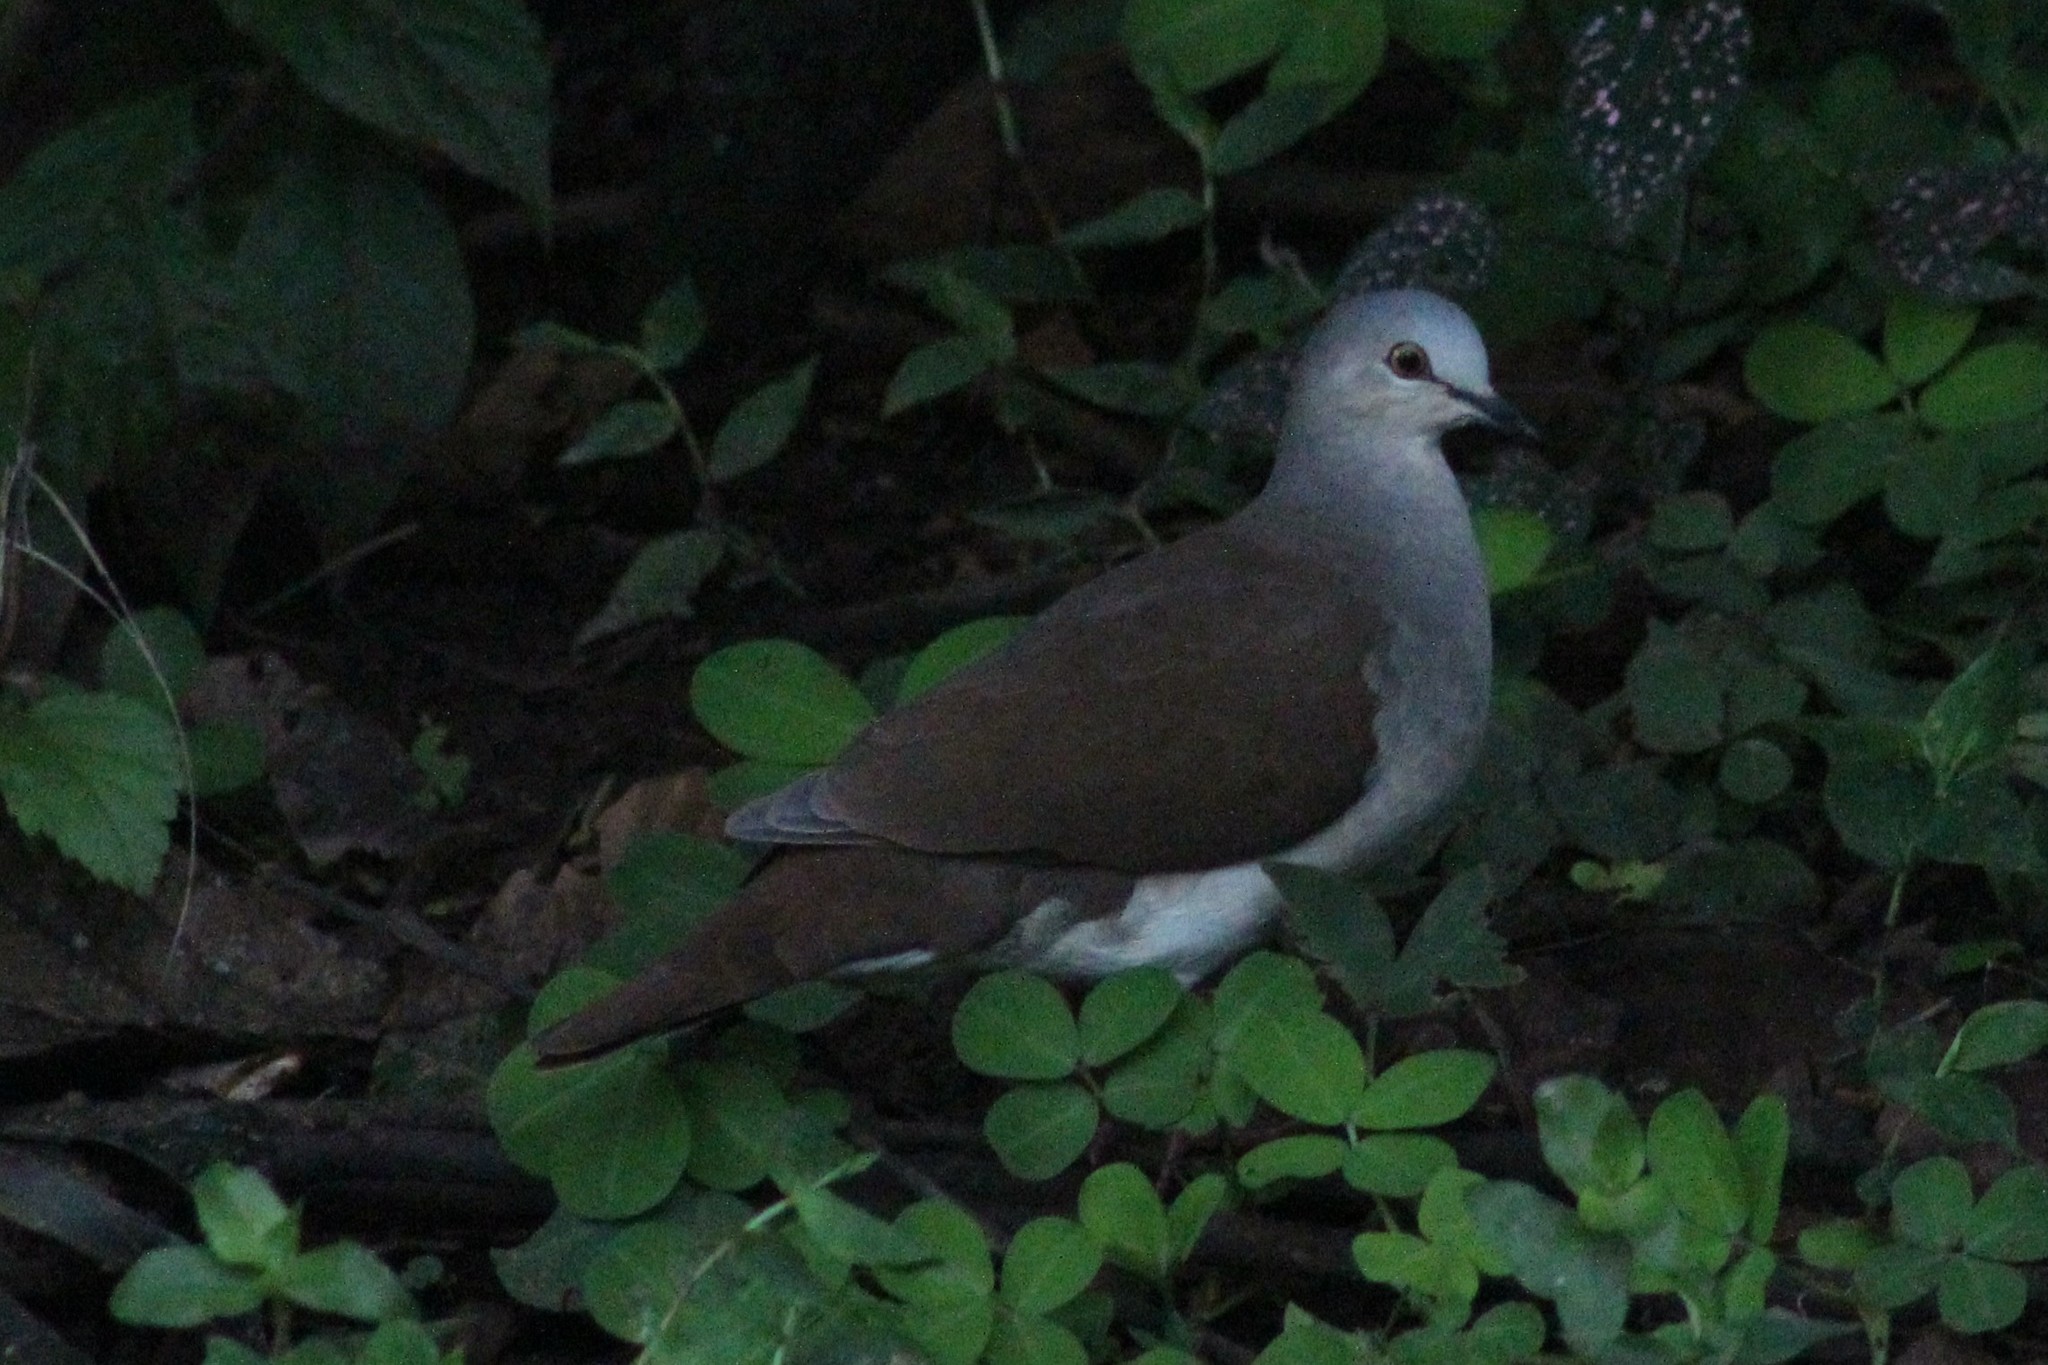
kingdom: Animalia
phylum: Chordata
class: Aves
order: Columbiformes
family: Columbidae
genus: Leptotila
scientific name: Leptotila pallida
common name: Pallid dove
